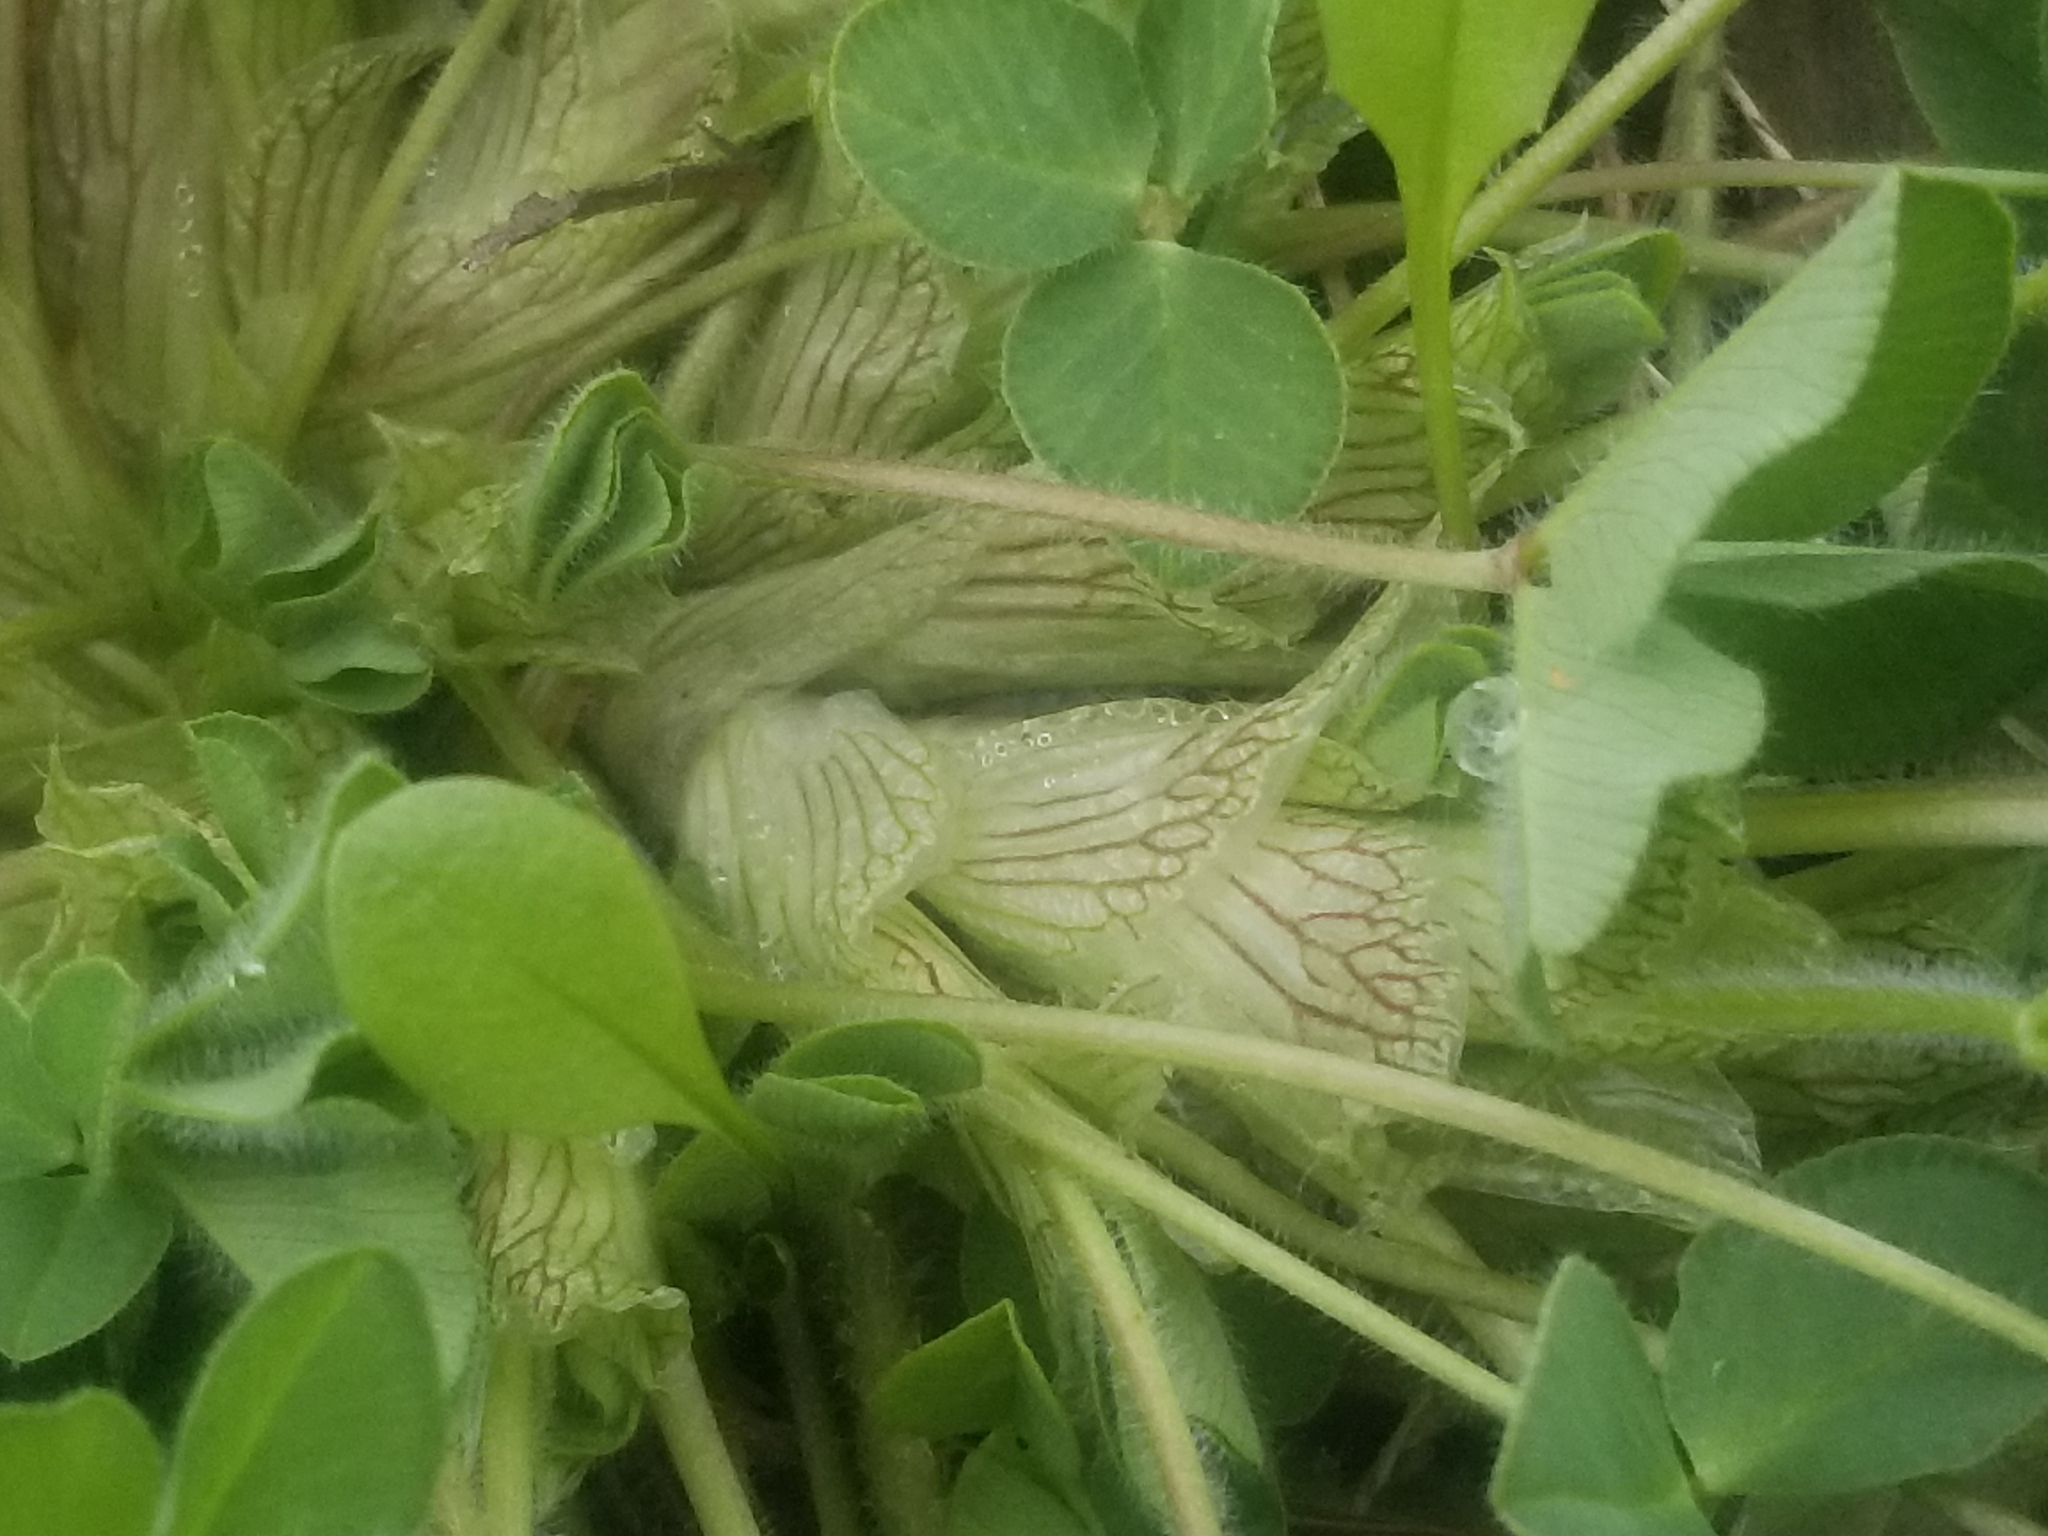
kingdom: Plantae
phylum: Tracheophyta
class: Magnoliopsida
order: Fabales
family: Fabaceae
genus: Trifolium
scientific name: Trifolium pratense
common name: Red clover
